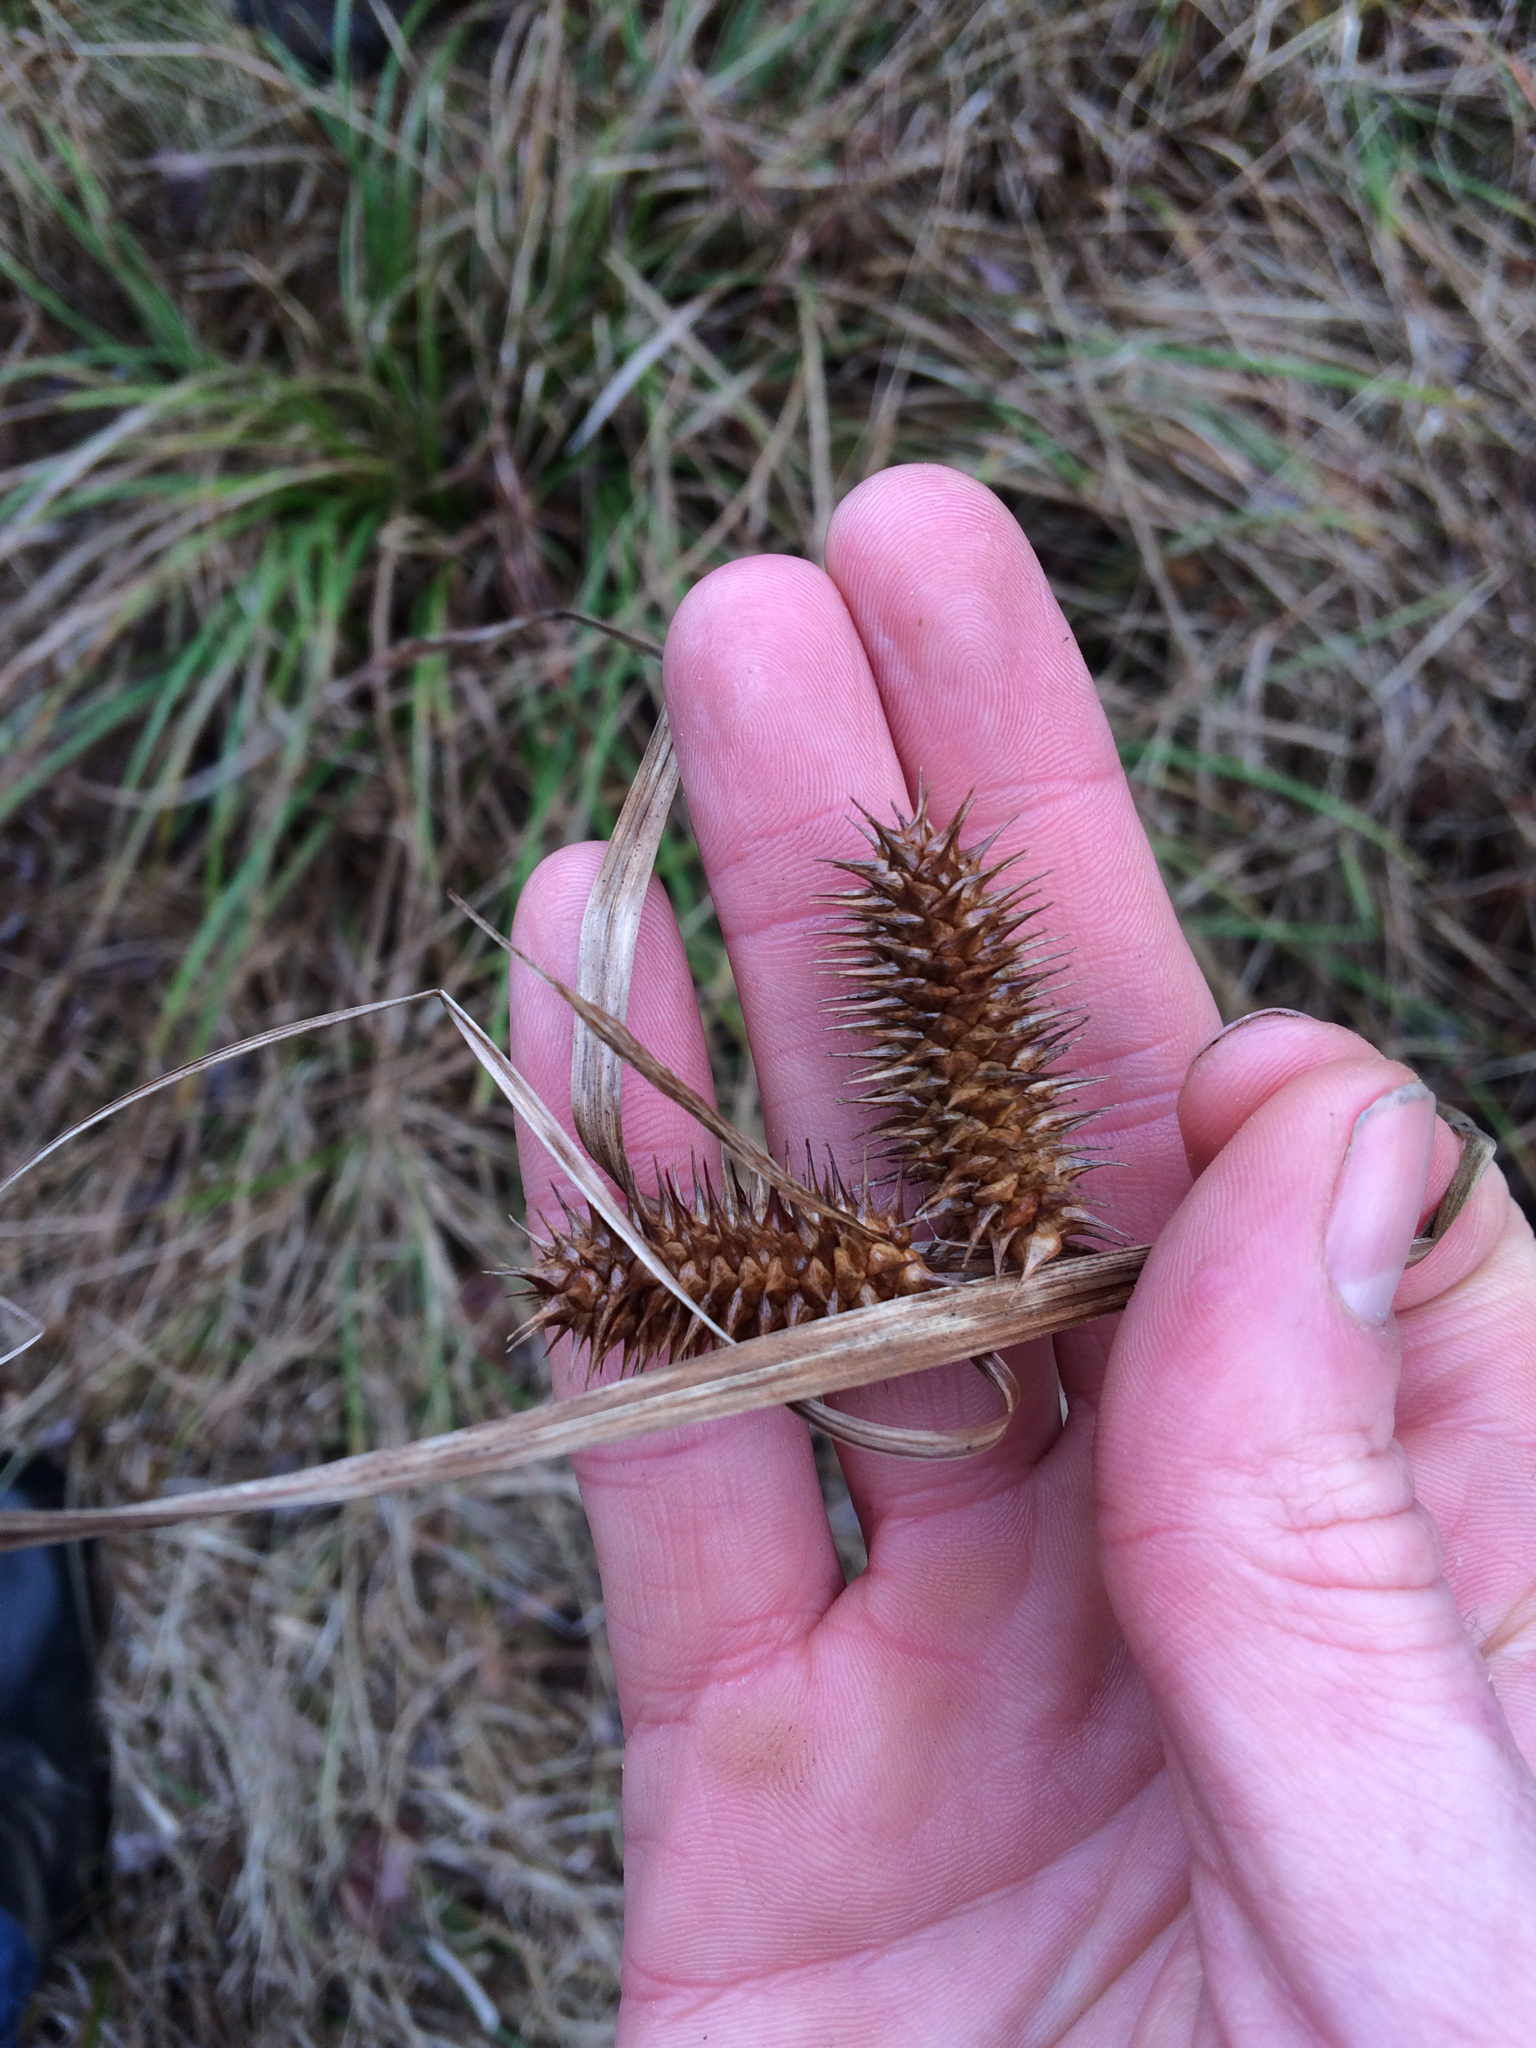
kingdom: Plantae
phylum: Tracheophyta
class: Liliopsida
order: Poales
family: Cyperaceae
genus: Carex
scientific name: Carex lurida
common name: Sallow sedge
